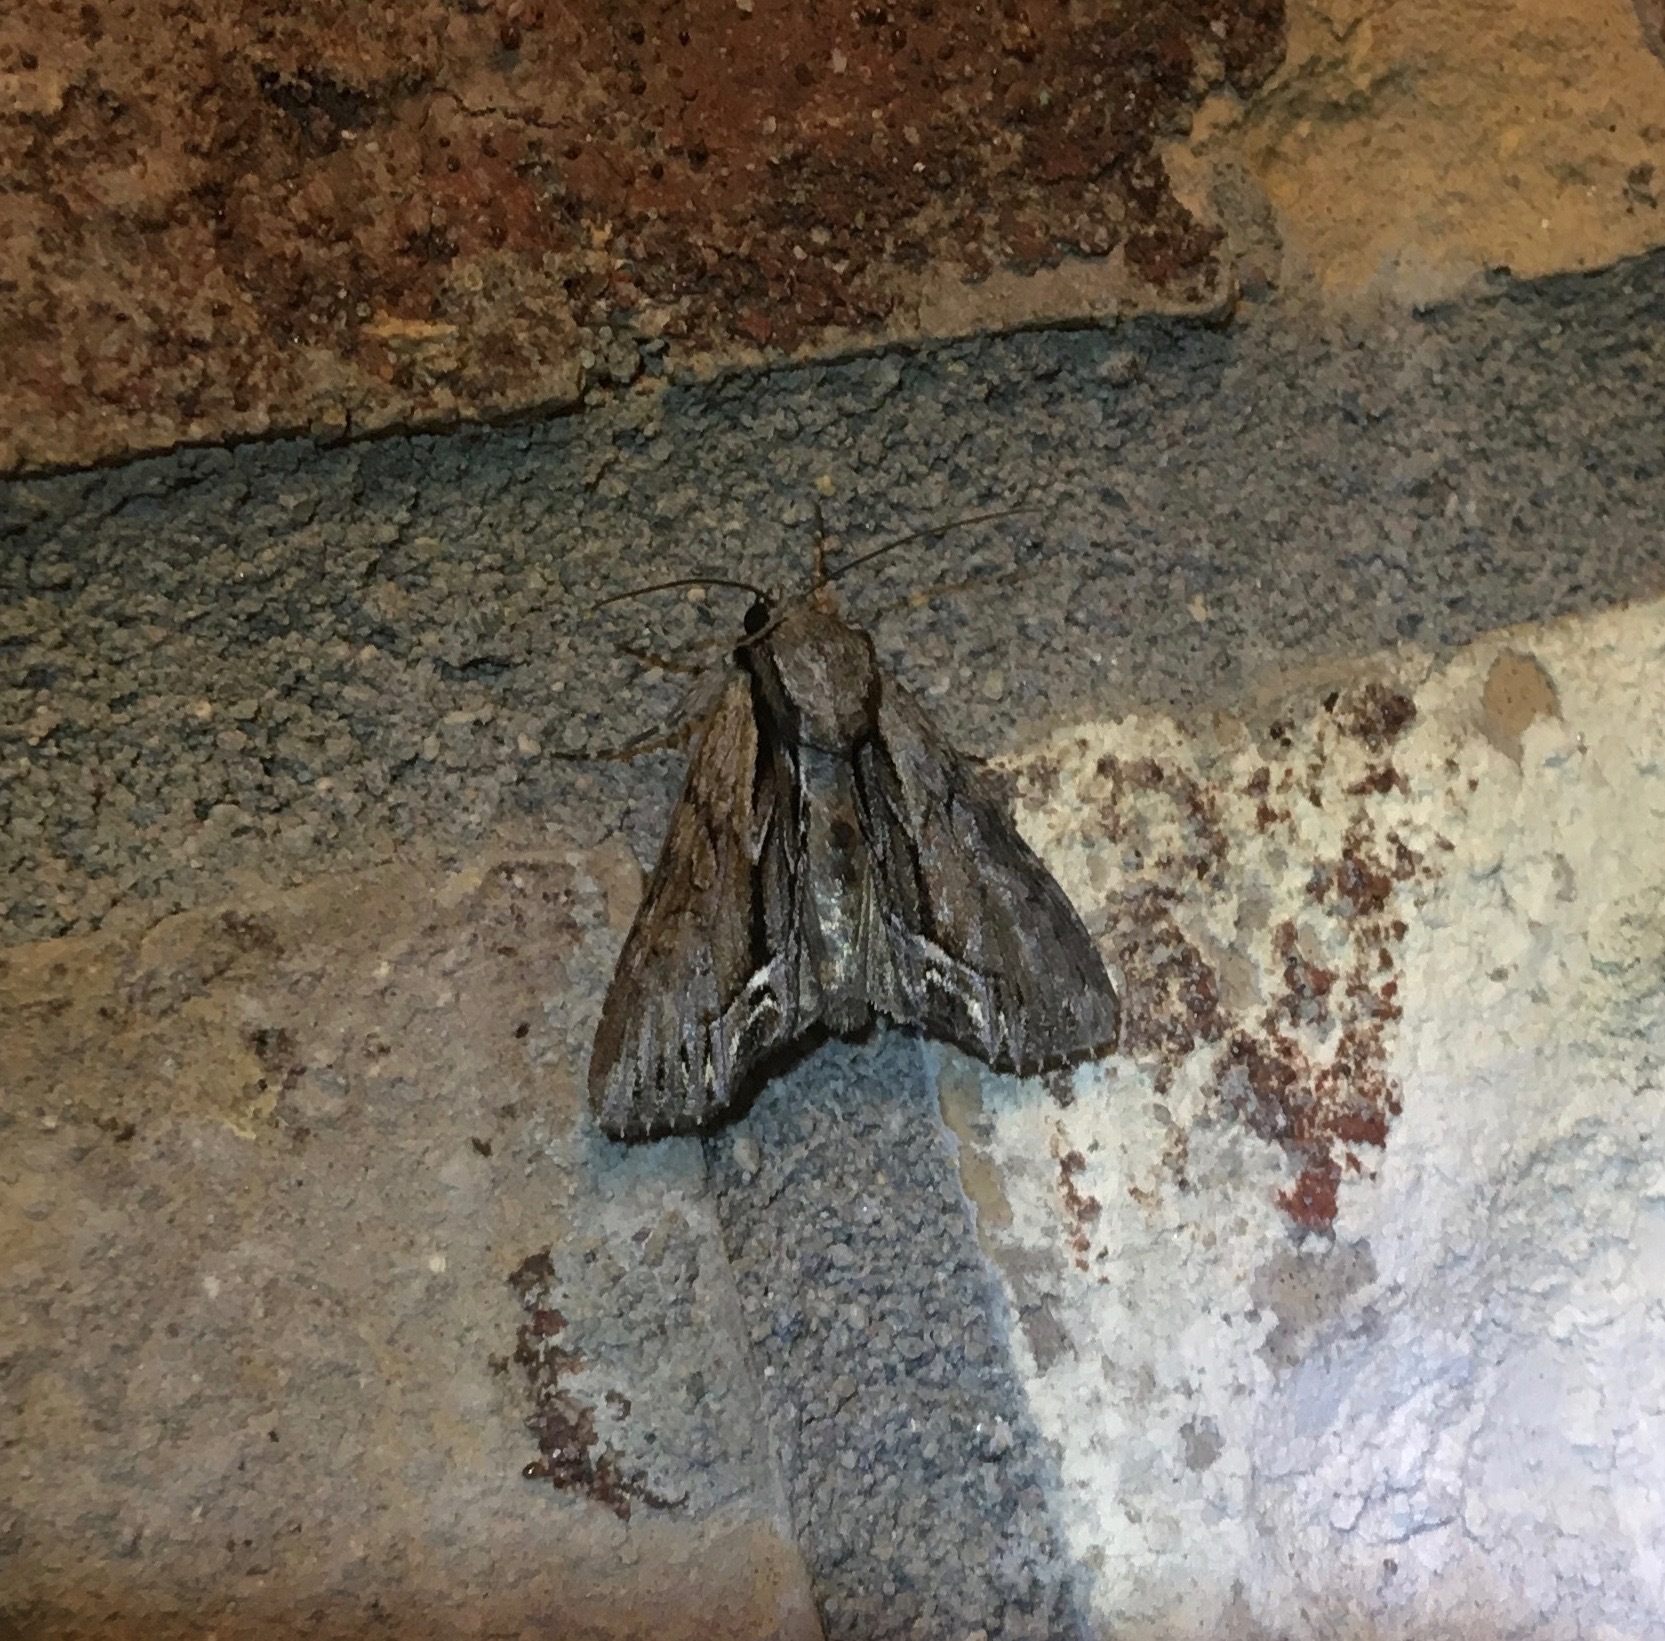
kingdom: Animalia
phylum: Arthropoda
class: Insecta
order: Lepidoptera
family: Noctuidae
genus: Hyppa
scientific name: Hyppa xylinoides
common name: Common hyppa moth
